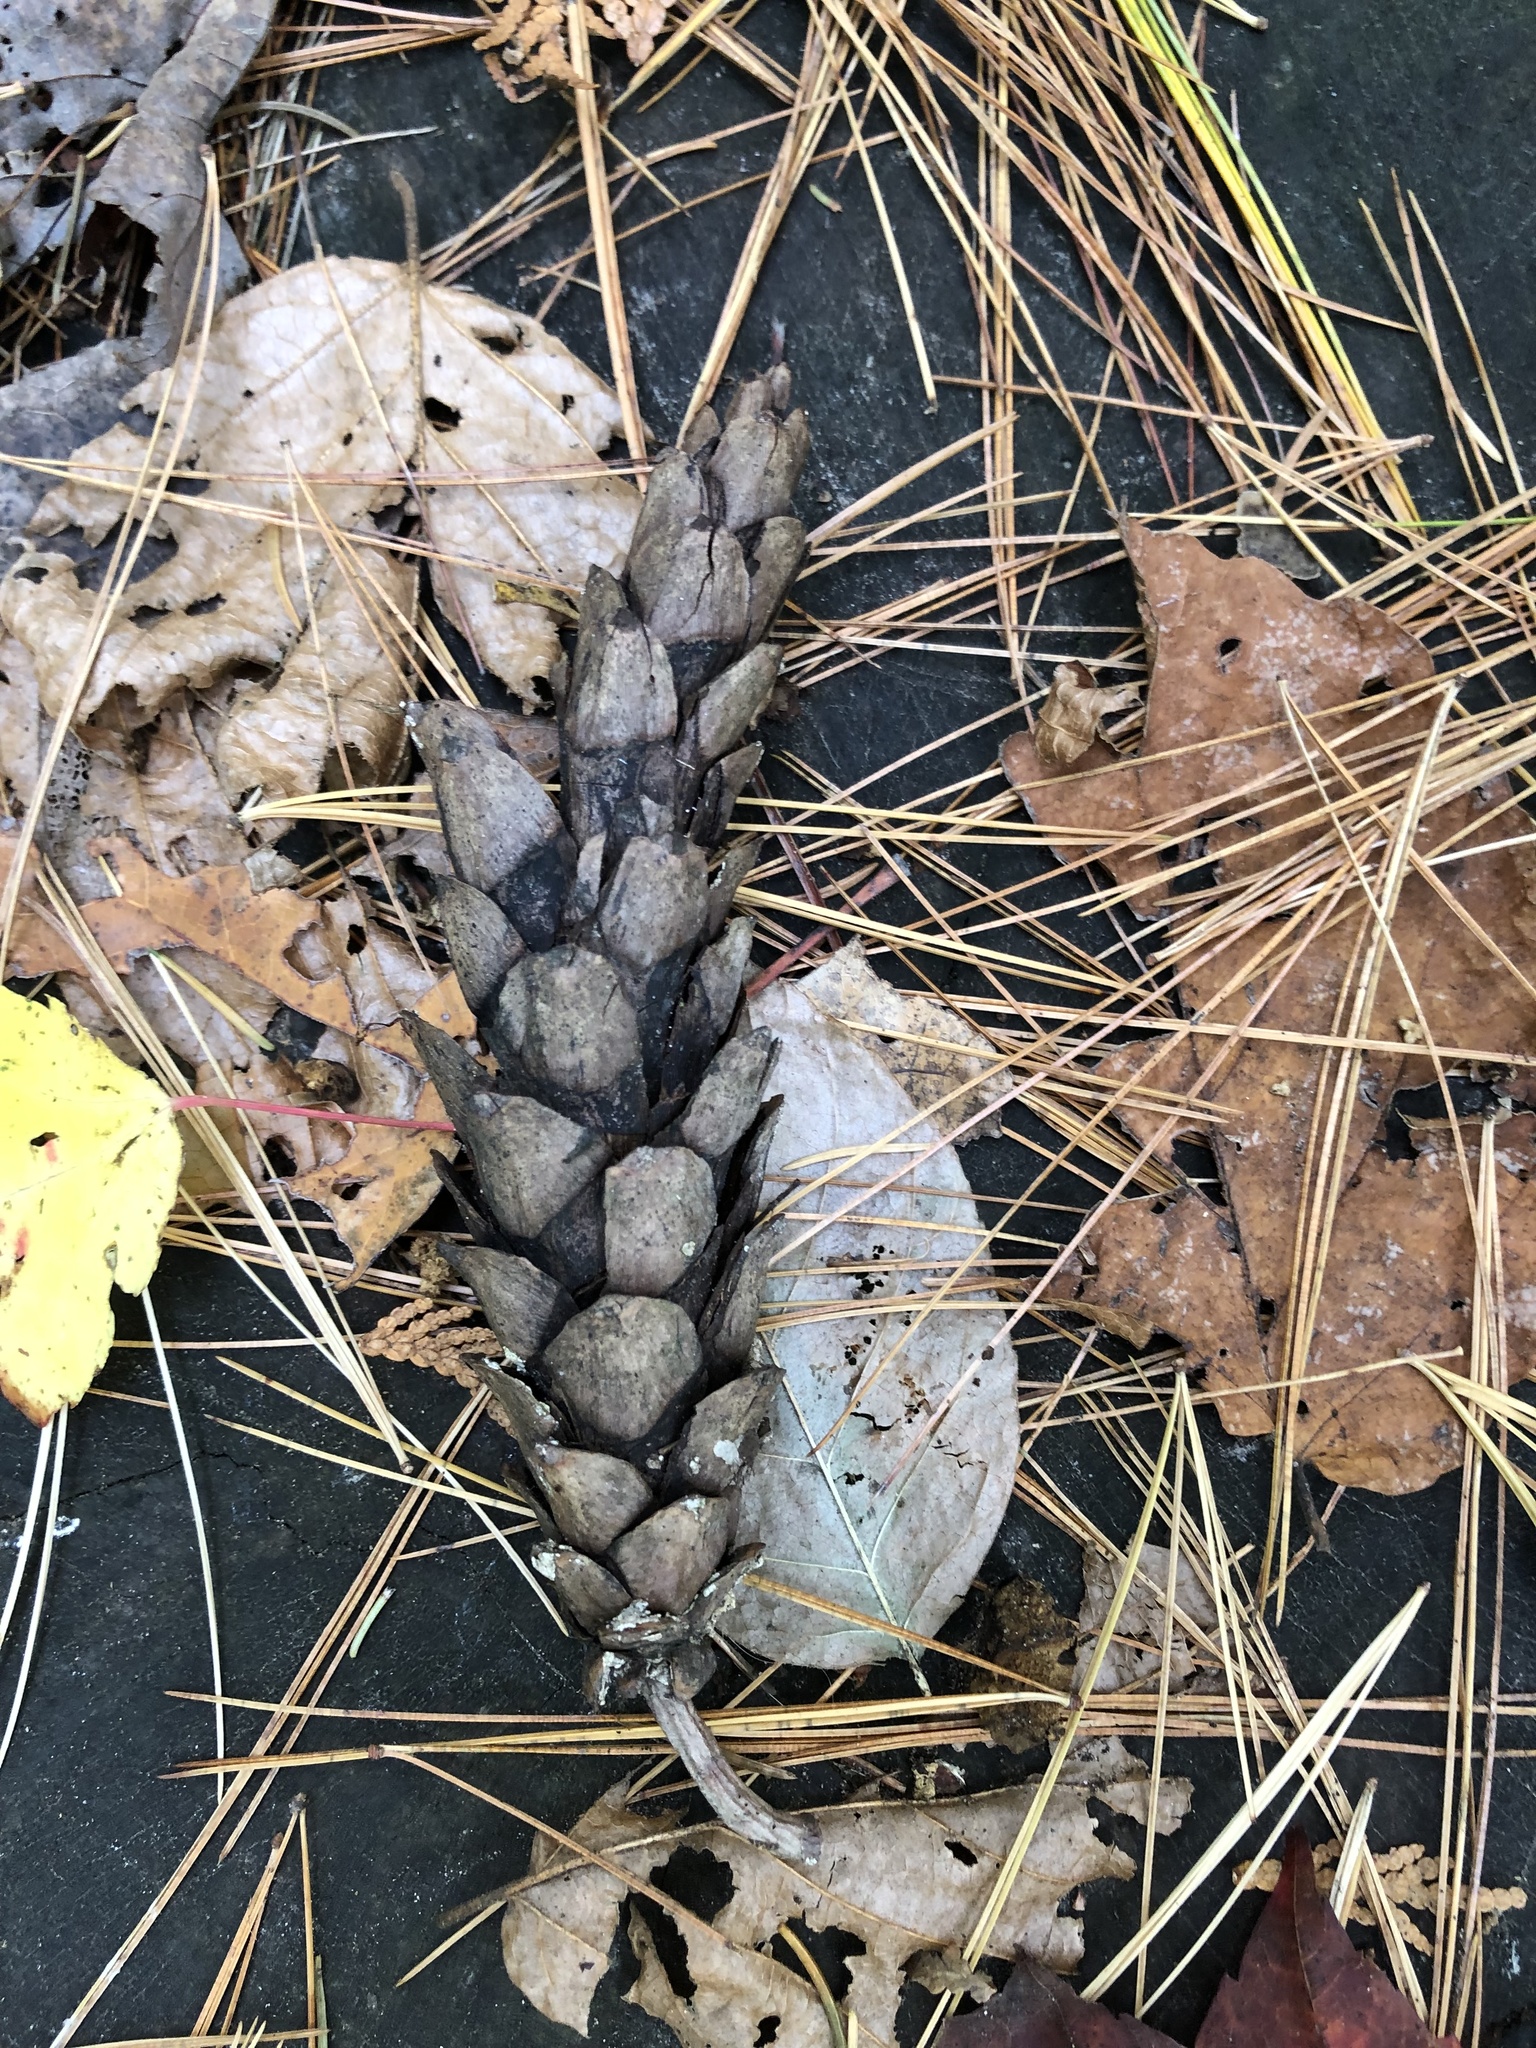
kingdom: Plantae
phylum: Tracheophyta
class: Pinopsida
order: Pinales
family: Pinaceae
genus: Pinus
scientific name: Pinus strobus
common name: Weymouth pine
